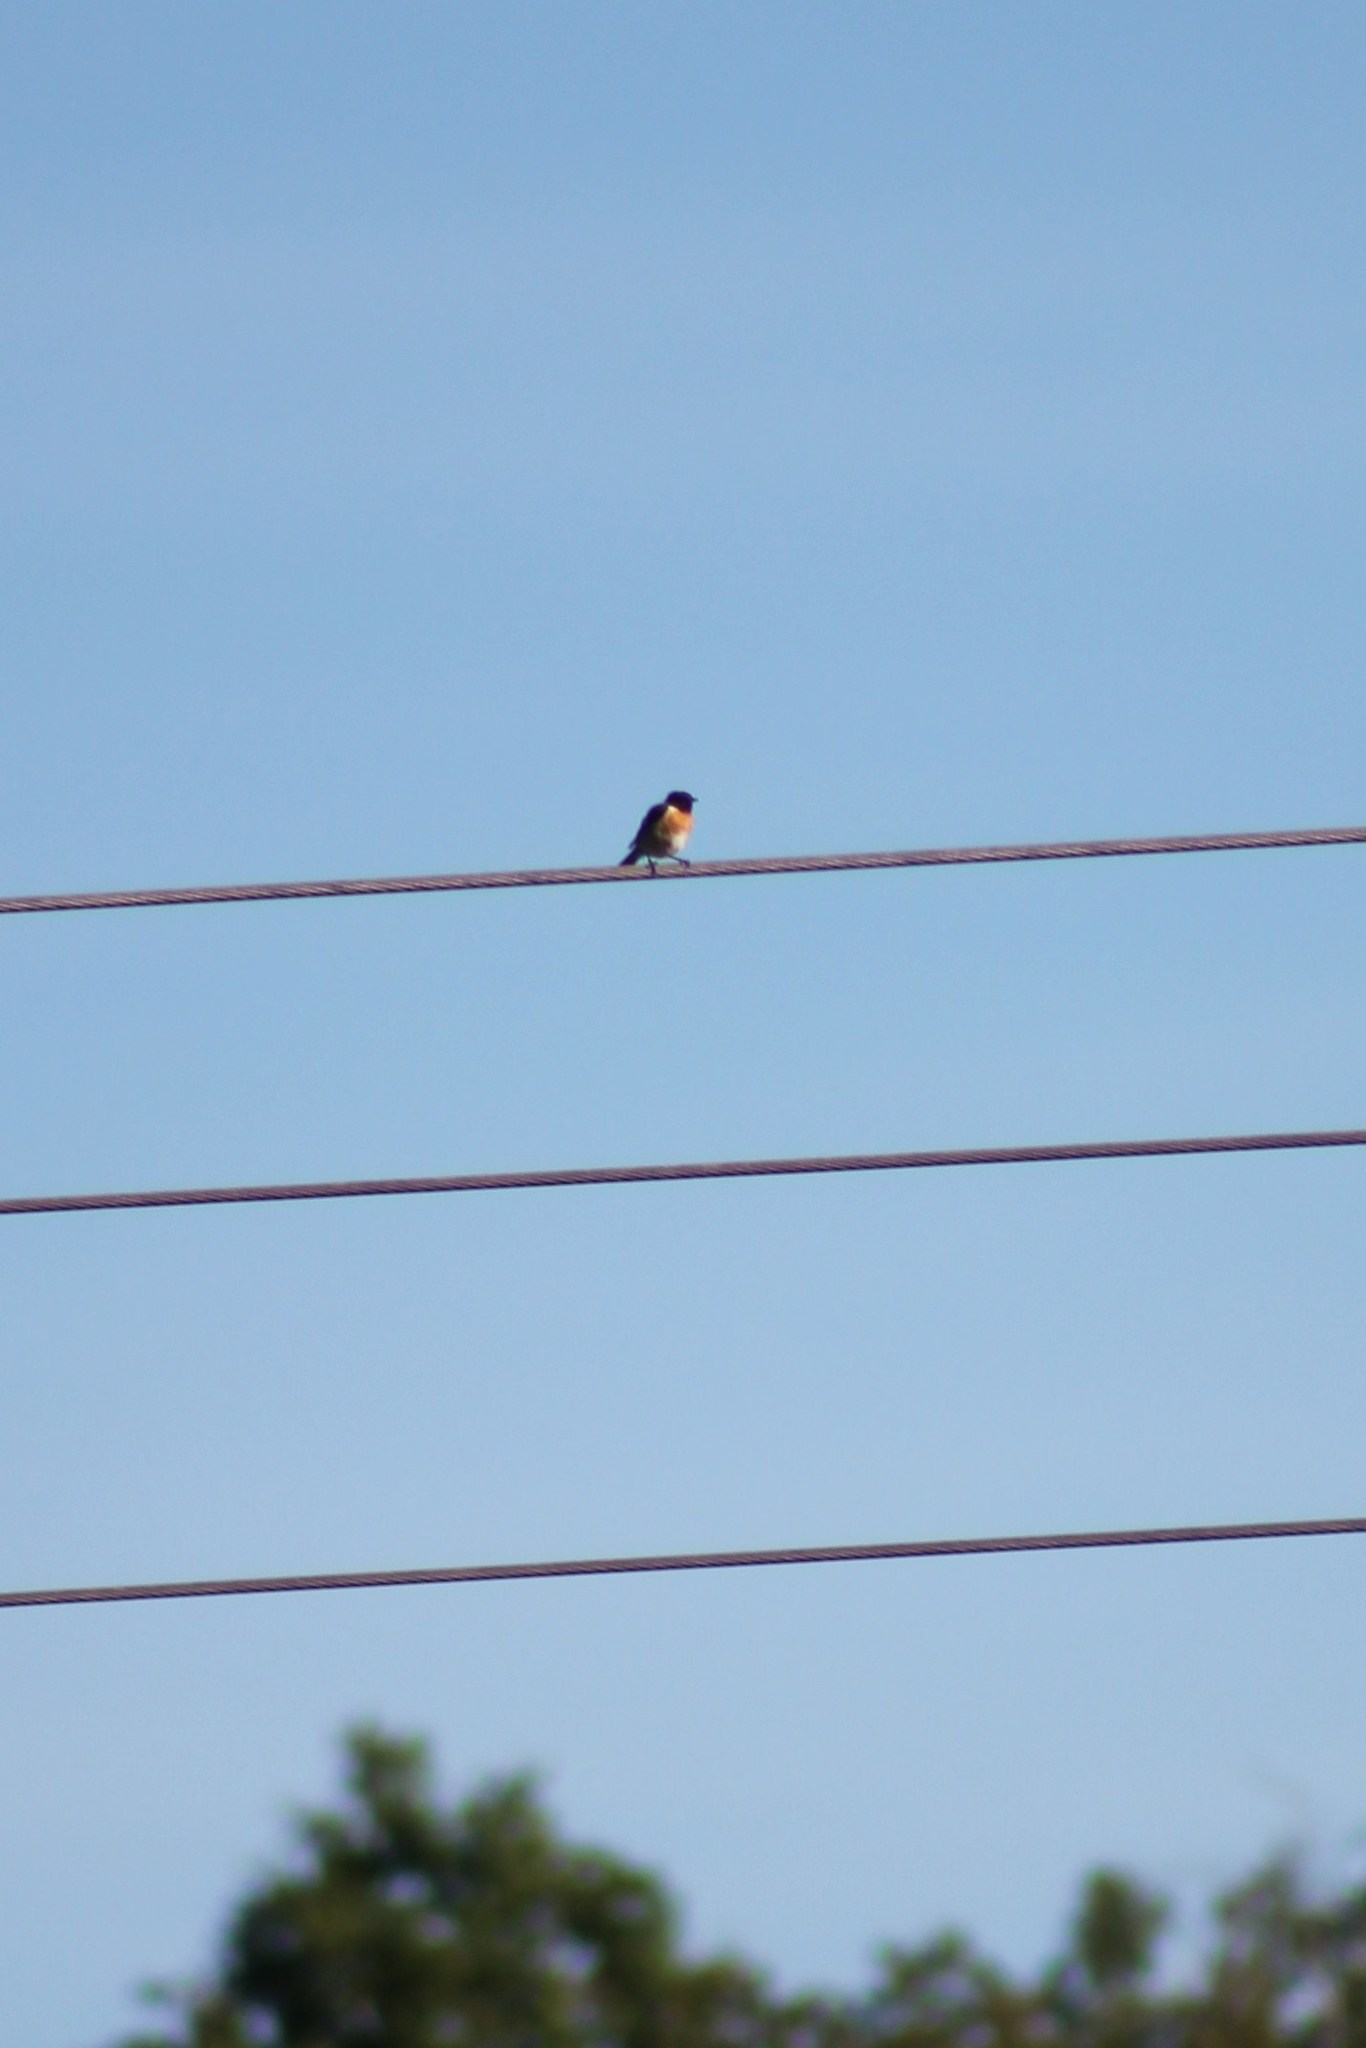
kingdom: Animalia
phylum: Chordata
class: Aves
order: Passeriformes
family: Muscicapidae
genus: Saxicola
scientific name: Saxicola rubicola
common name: European stonechat
